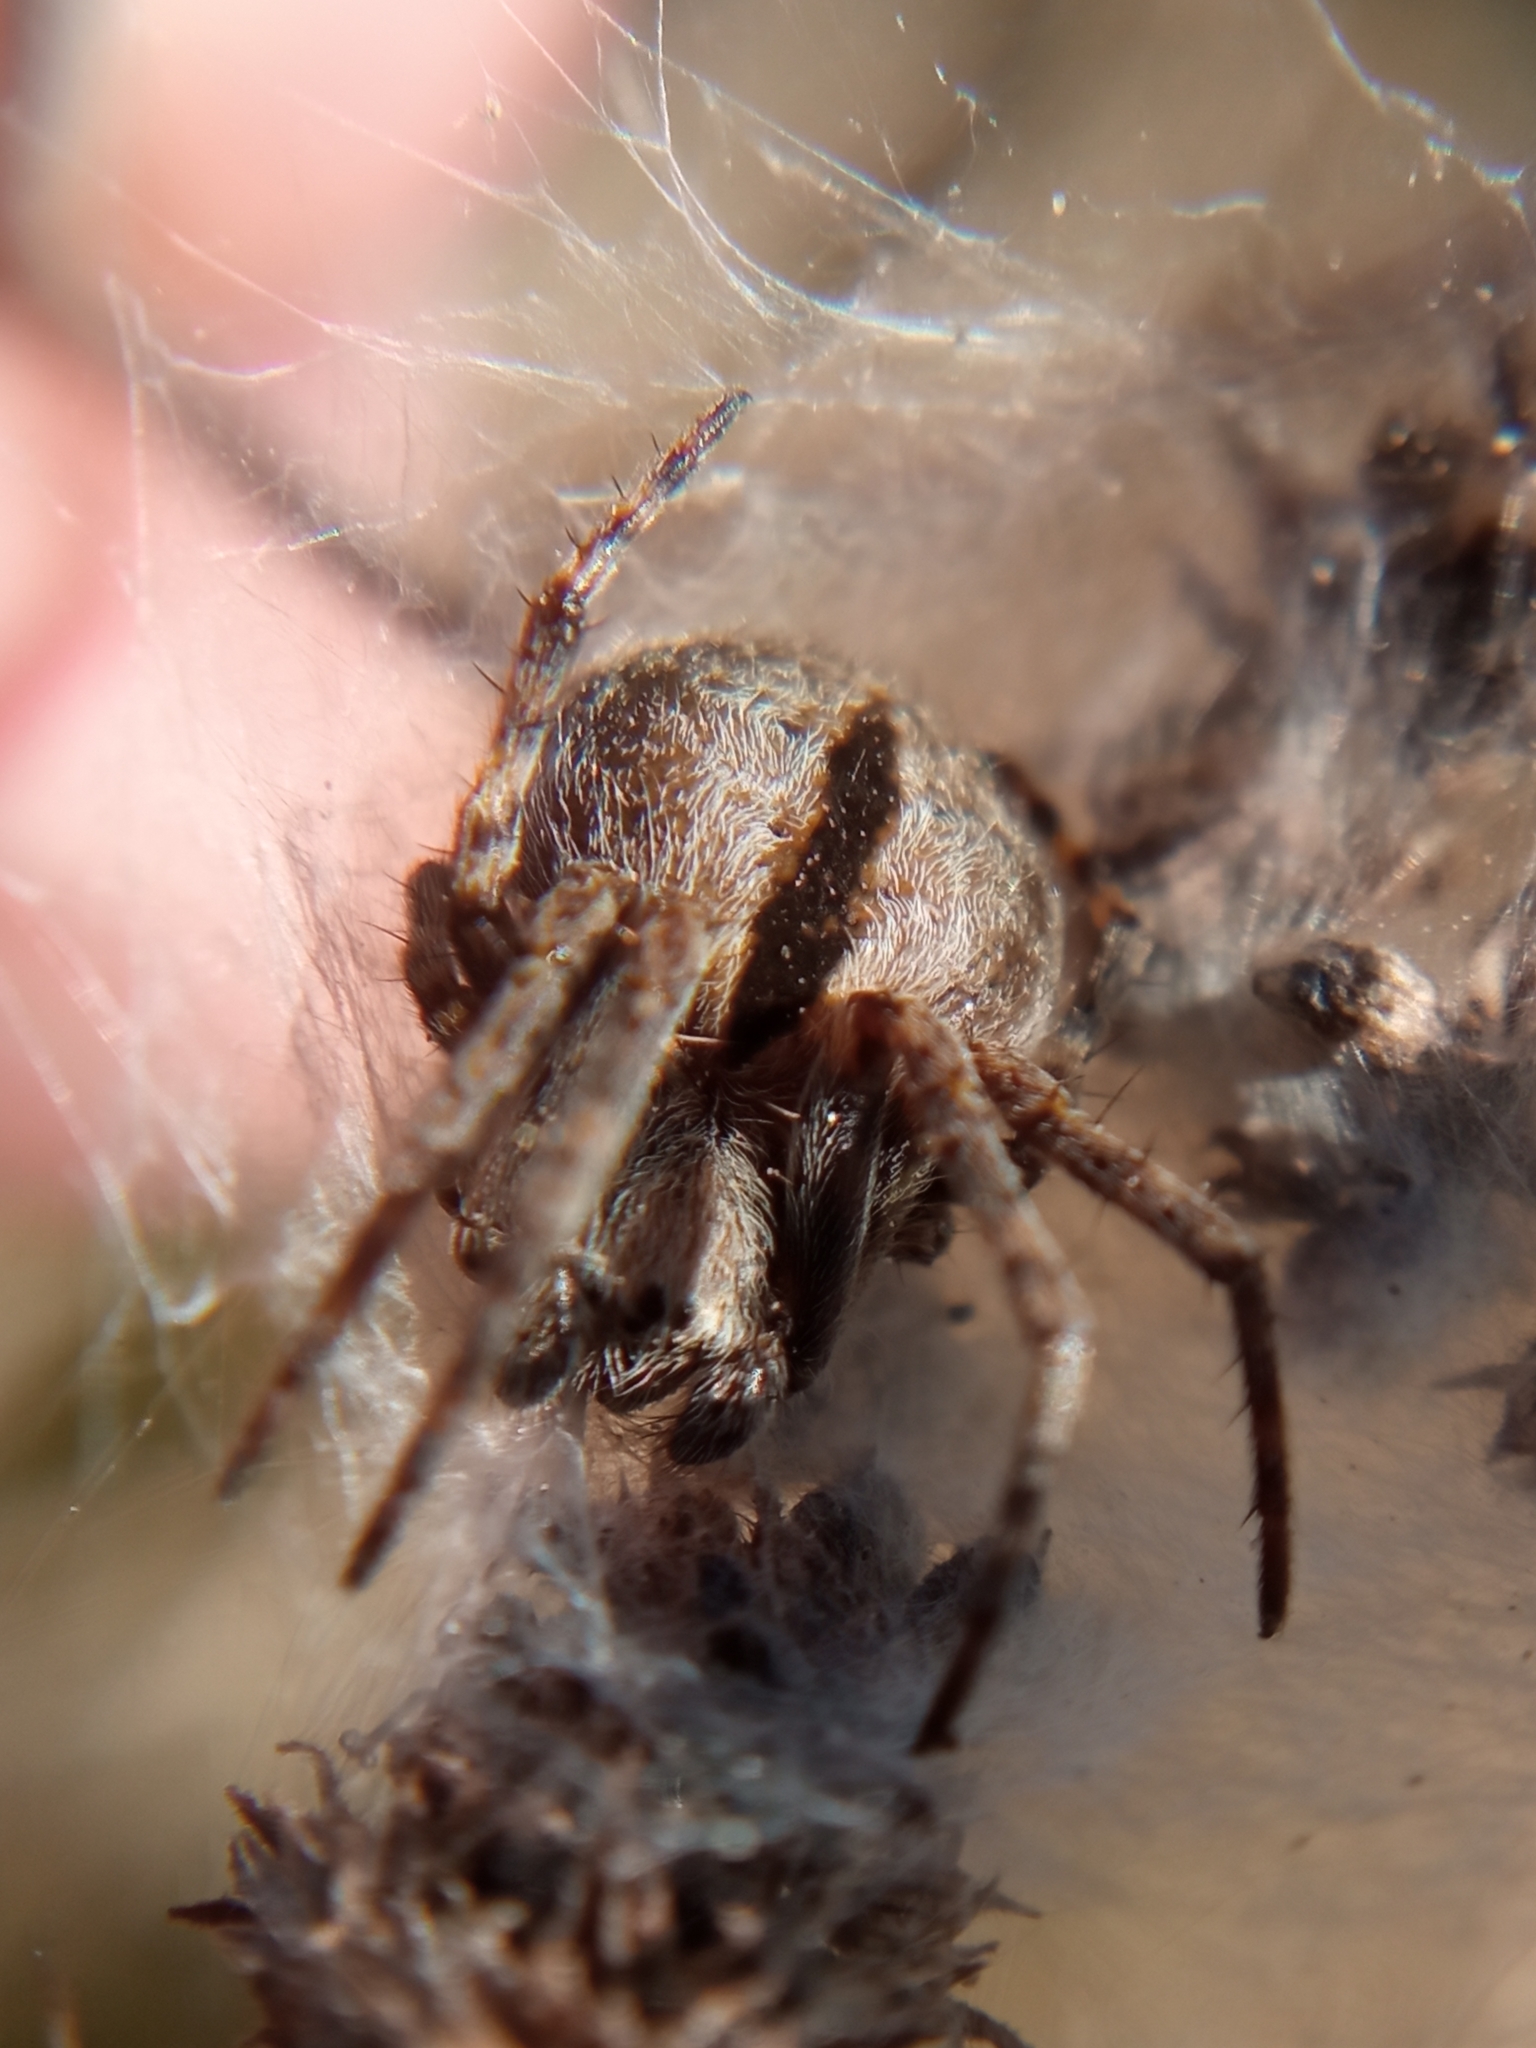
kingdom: Animalia
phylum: Arthropoda
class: Arachnida
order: Araneae
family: Araneidae
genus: Agalenatea
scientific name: Agalenatea redii
